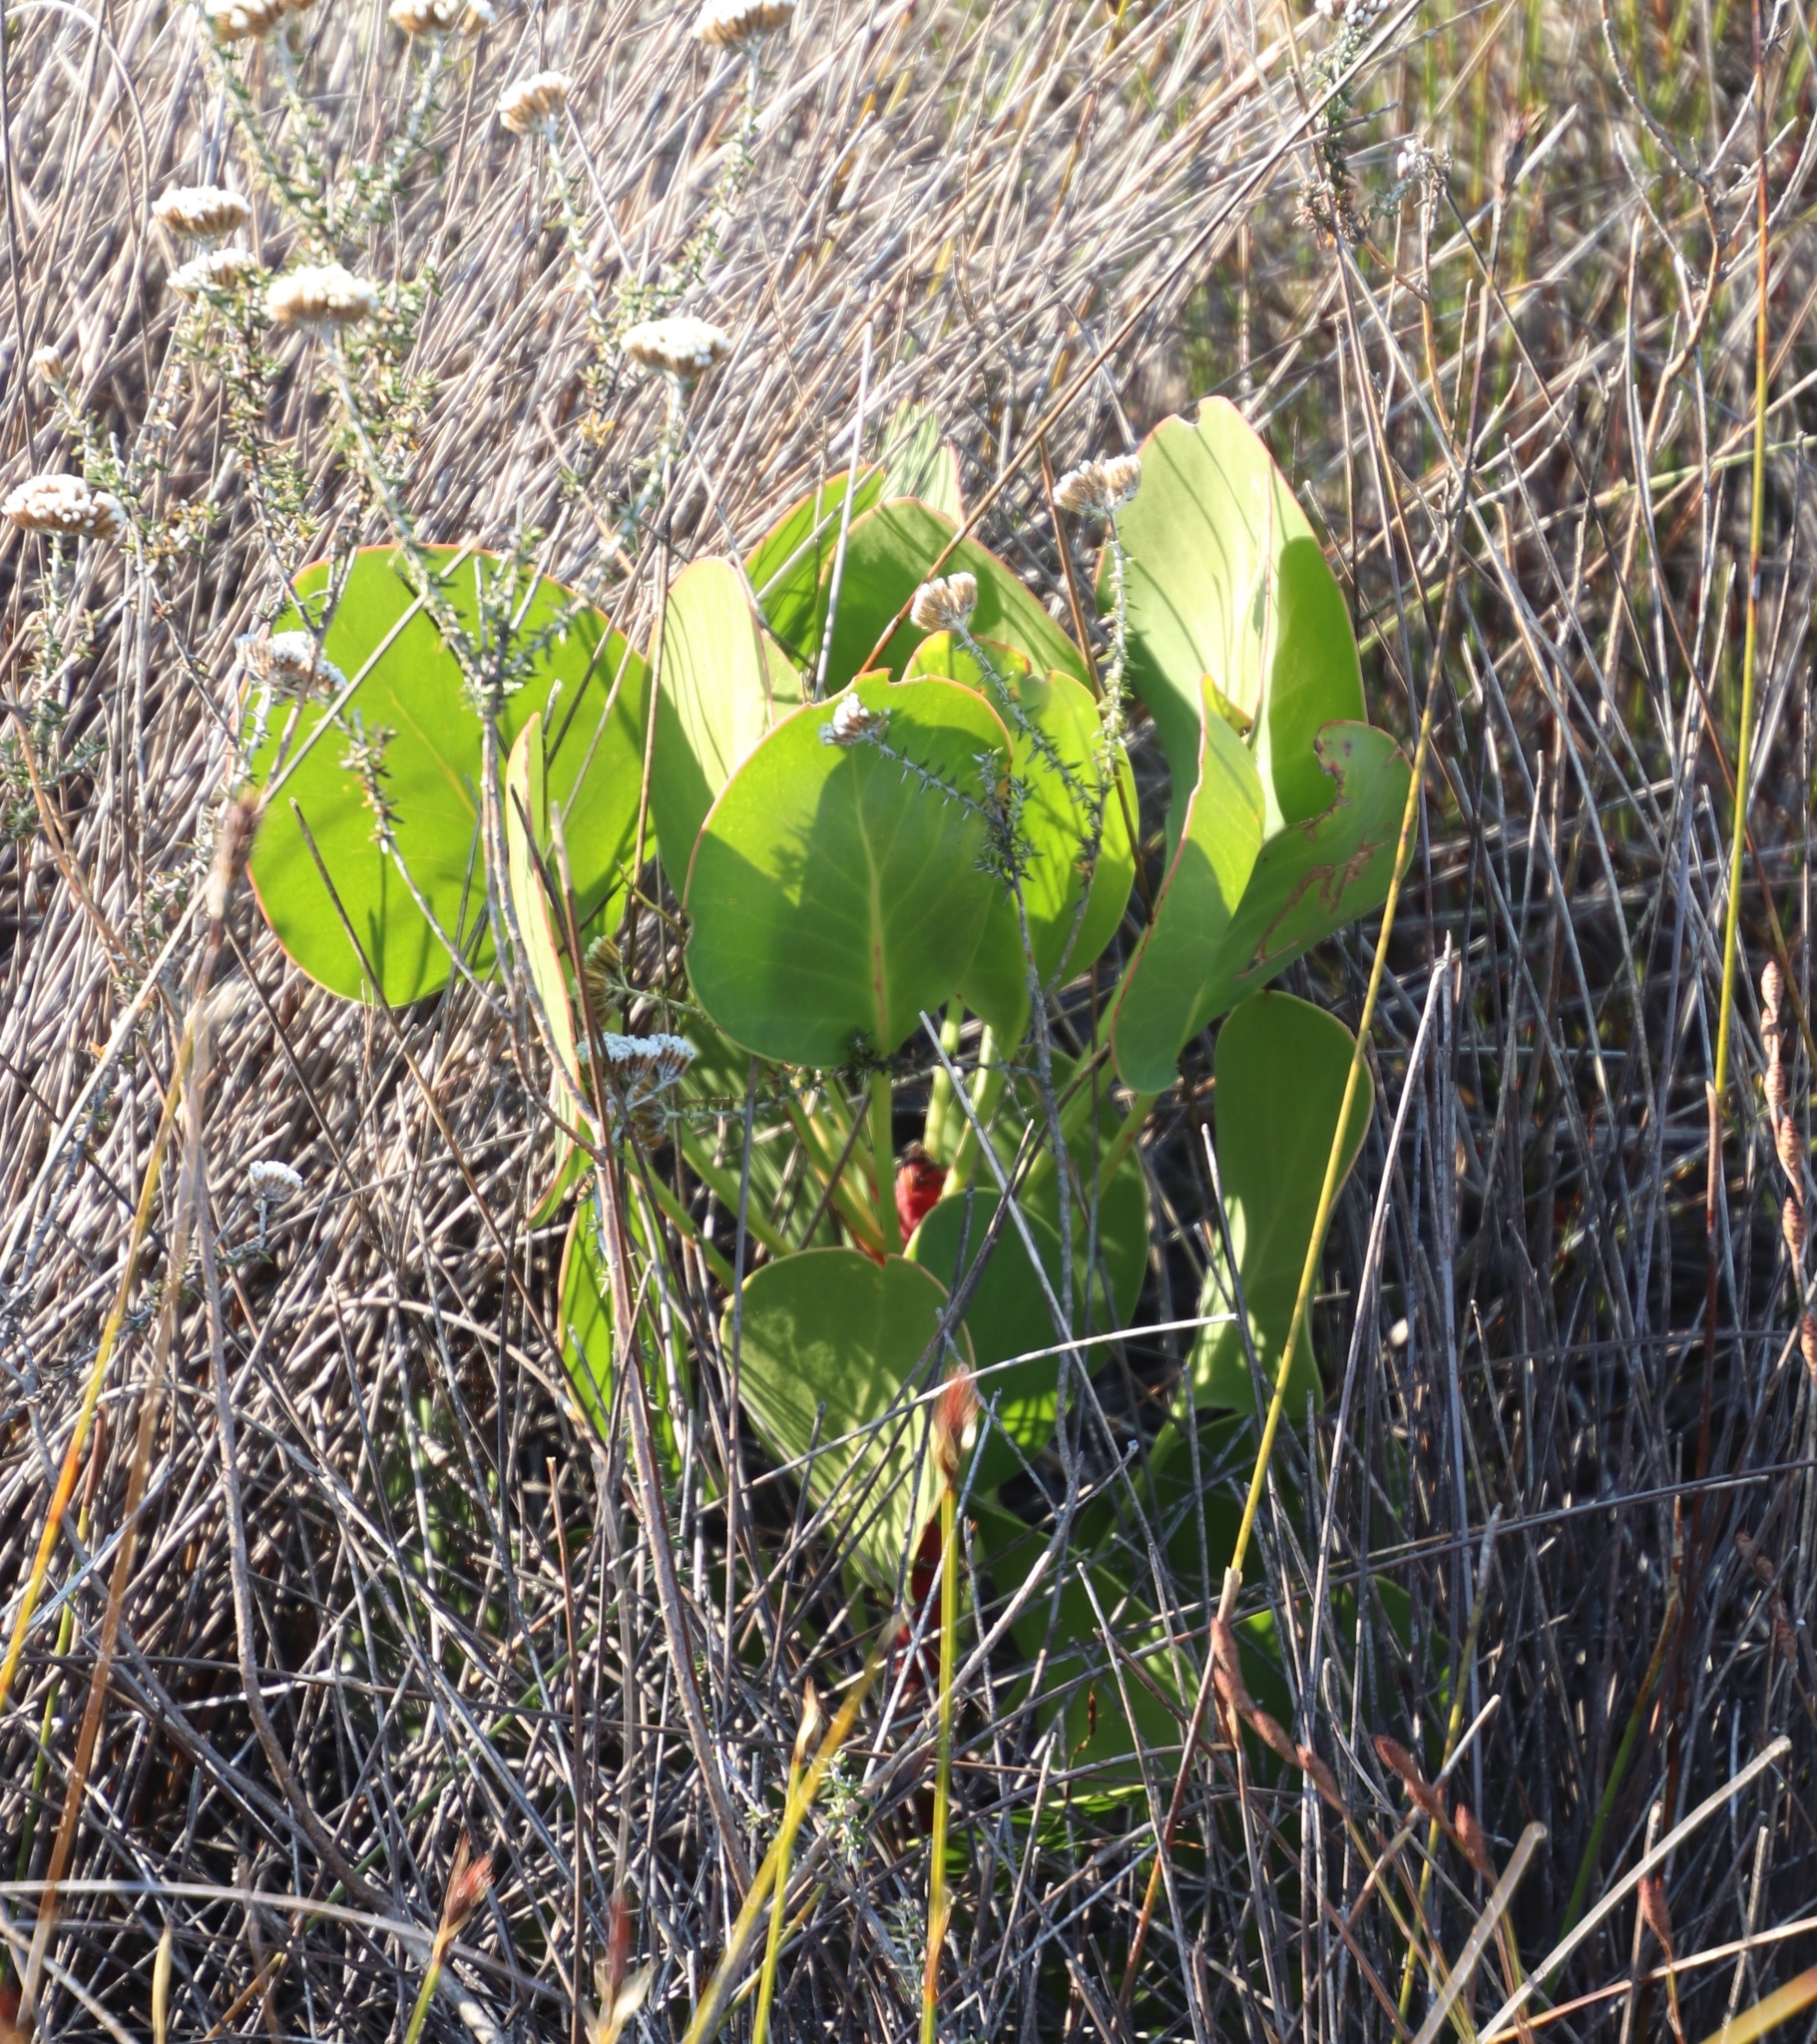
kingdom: Plantae
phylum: Tracheophyta
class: Magnoliopsida
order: Proteales
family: Proteaceae
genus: Protea
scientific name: Protea cynaroides
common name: King protea
